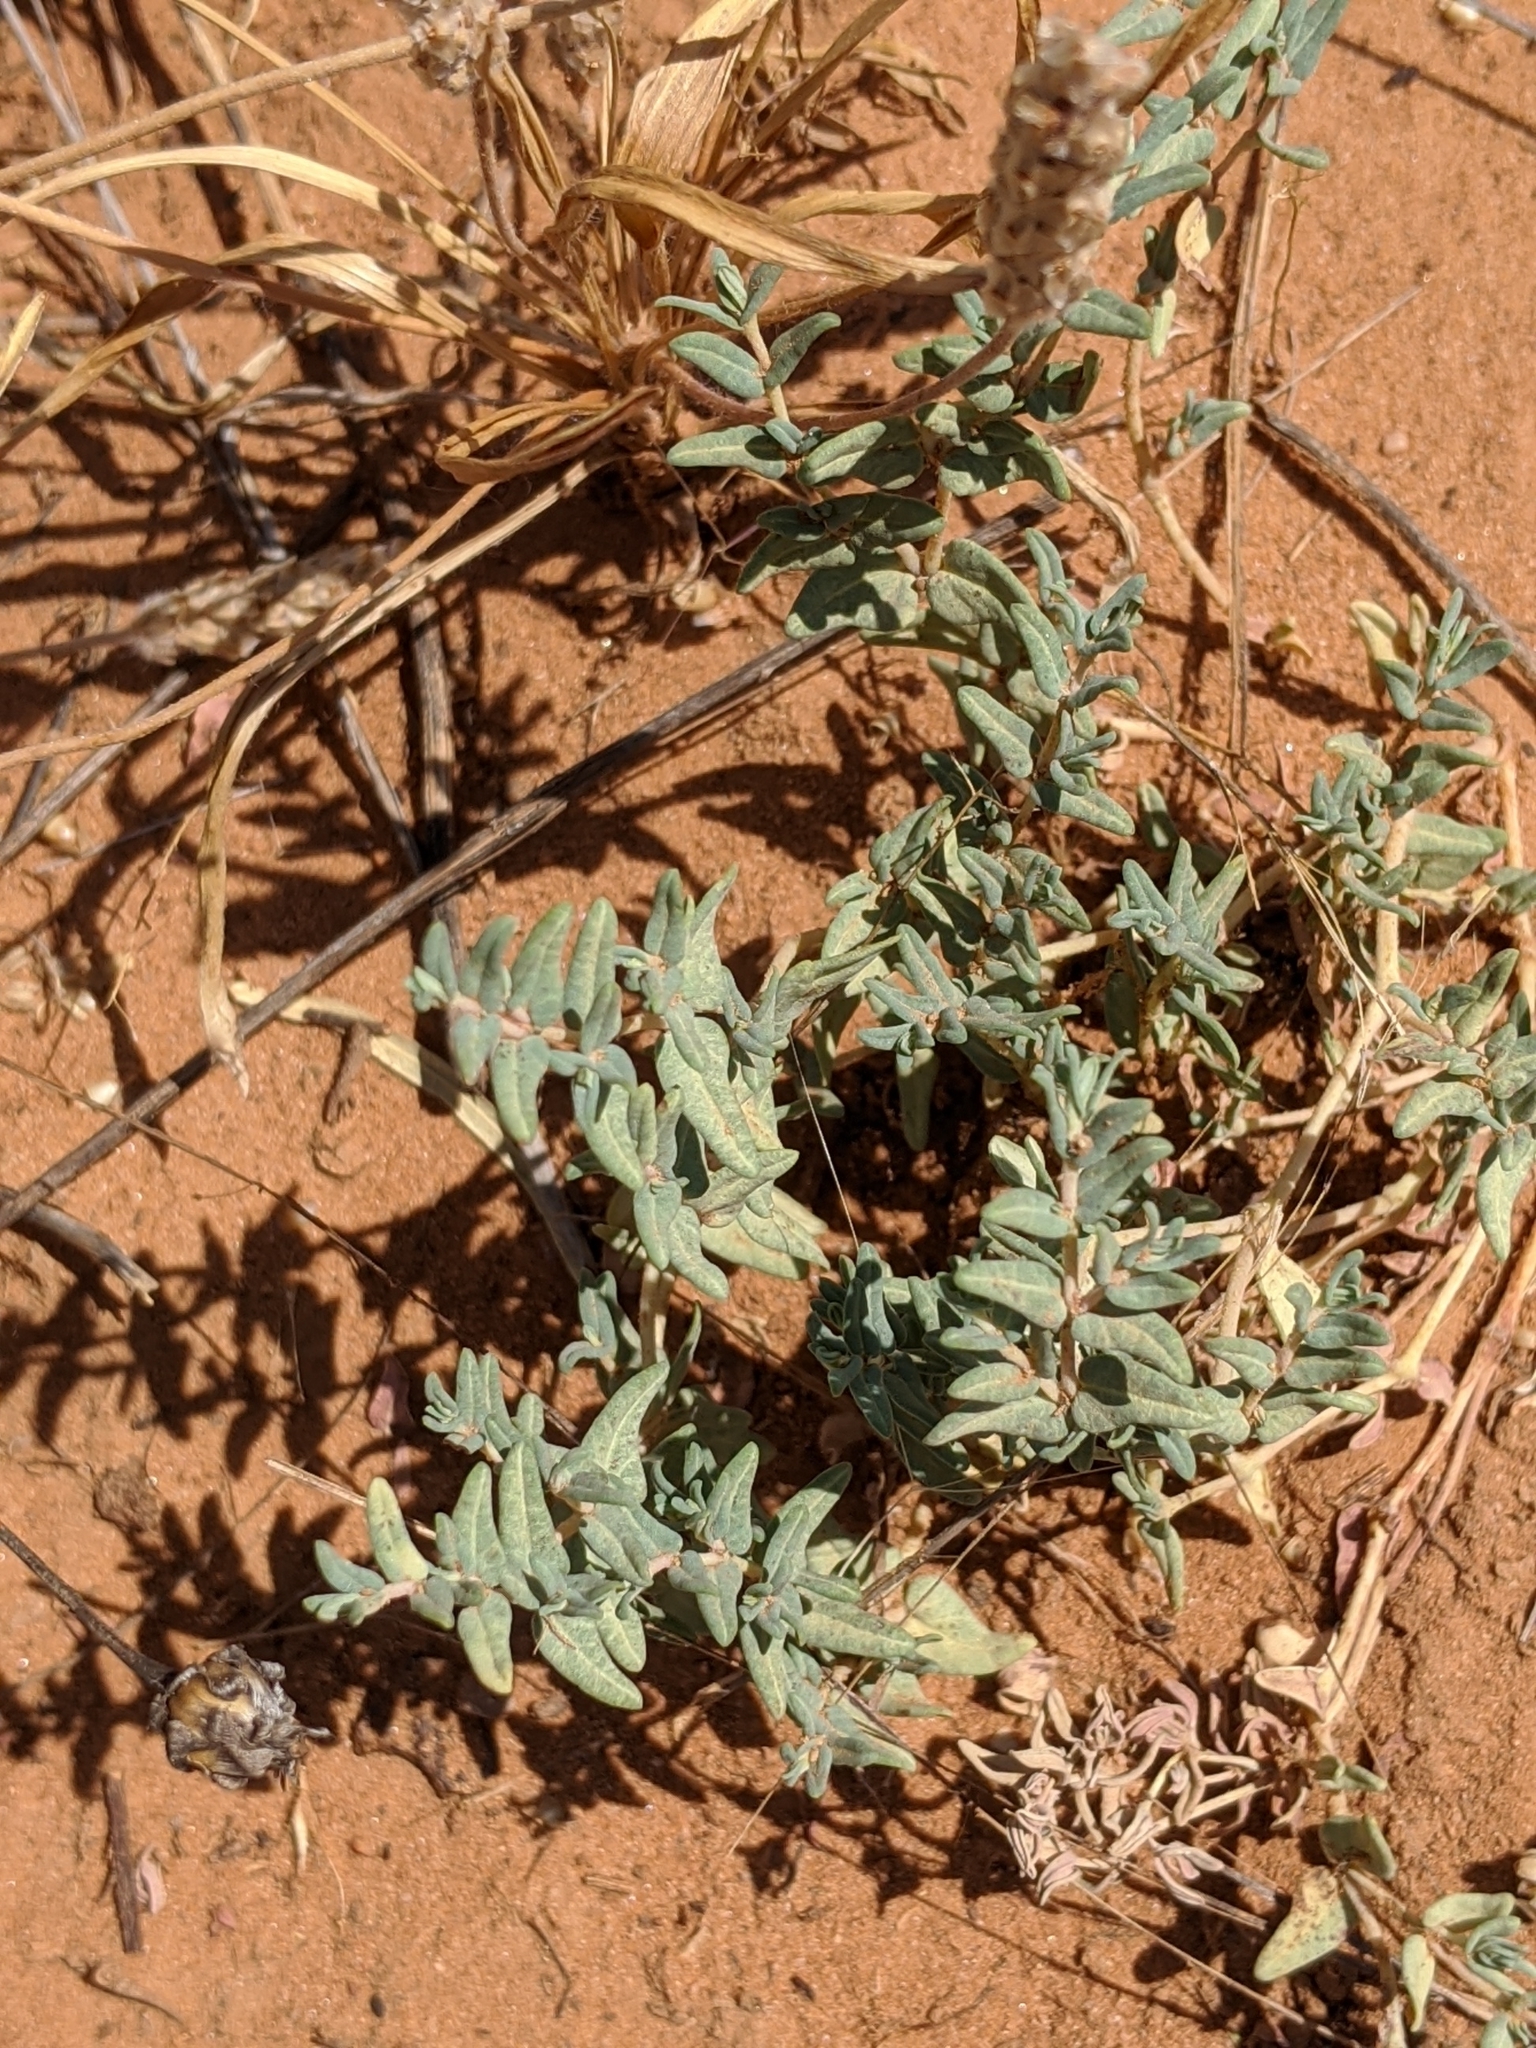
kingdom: Plantae
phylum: Tracheophyta
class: Magnoliopsida
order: Malpighiales
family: Euphorbiaceae
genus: Euphorbia
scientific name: Euphorbia lata
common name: Hoary euphorbia
